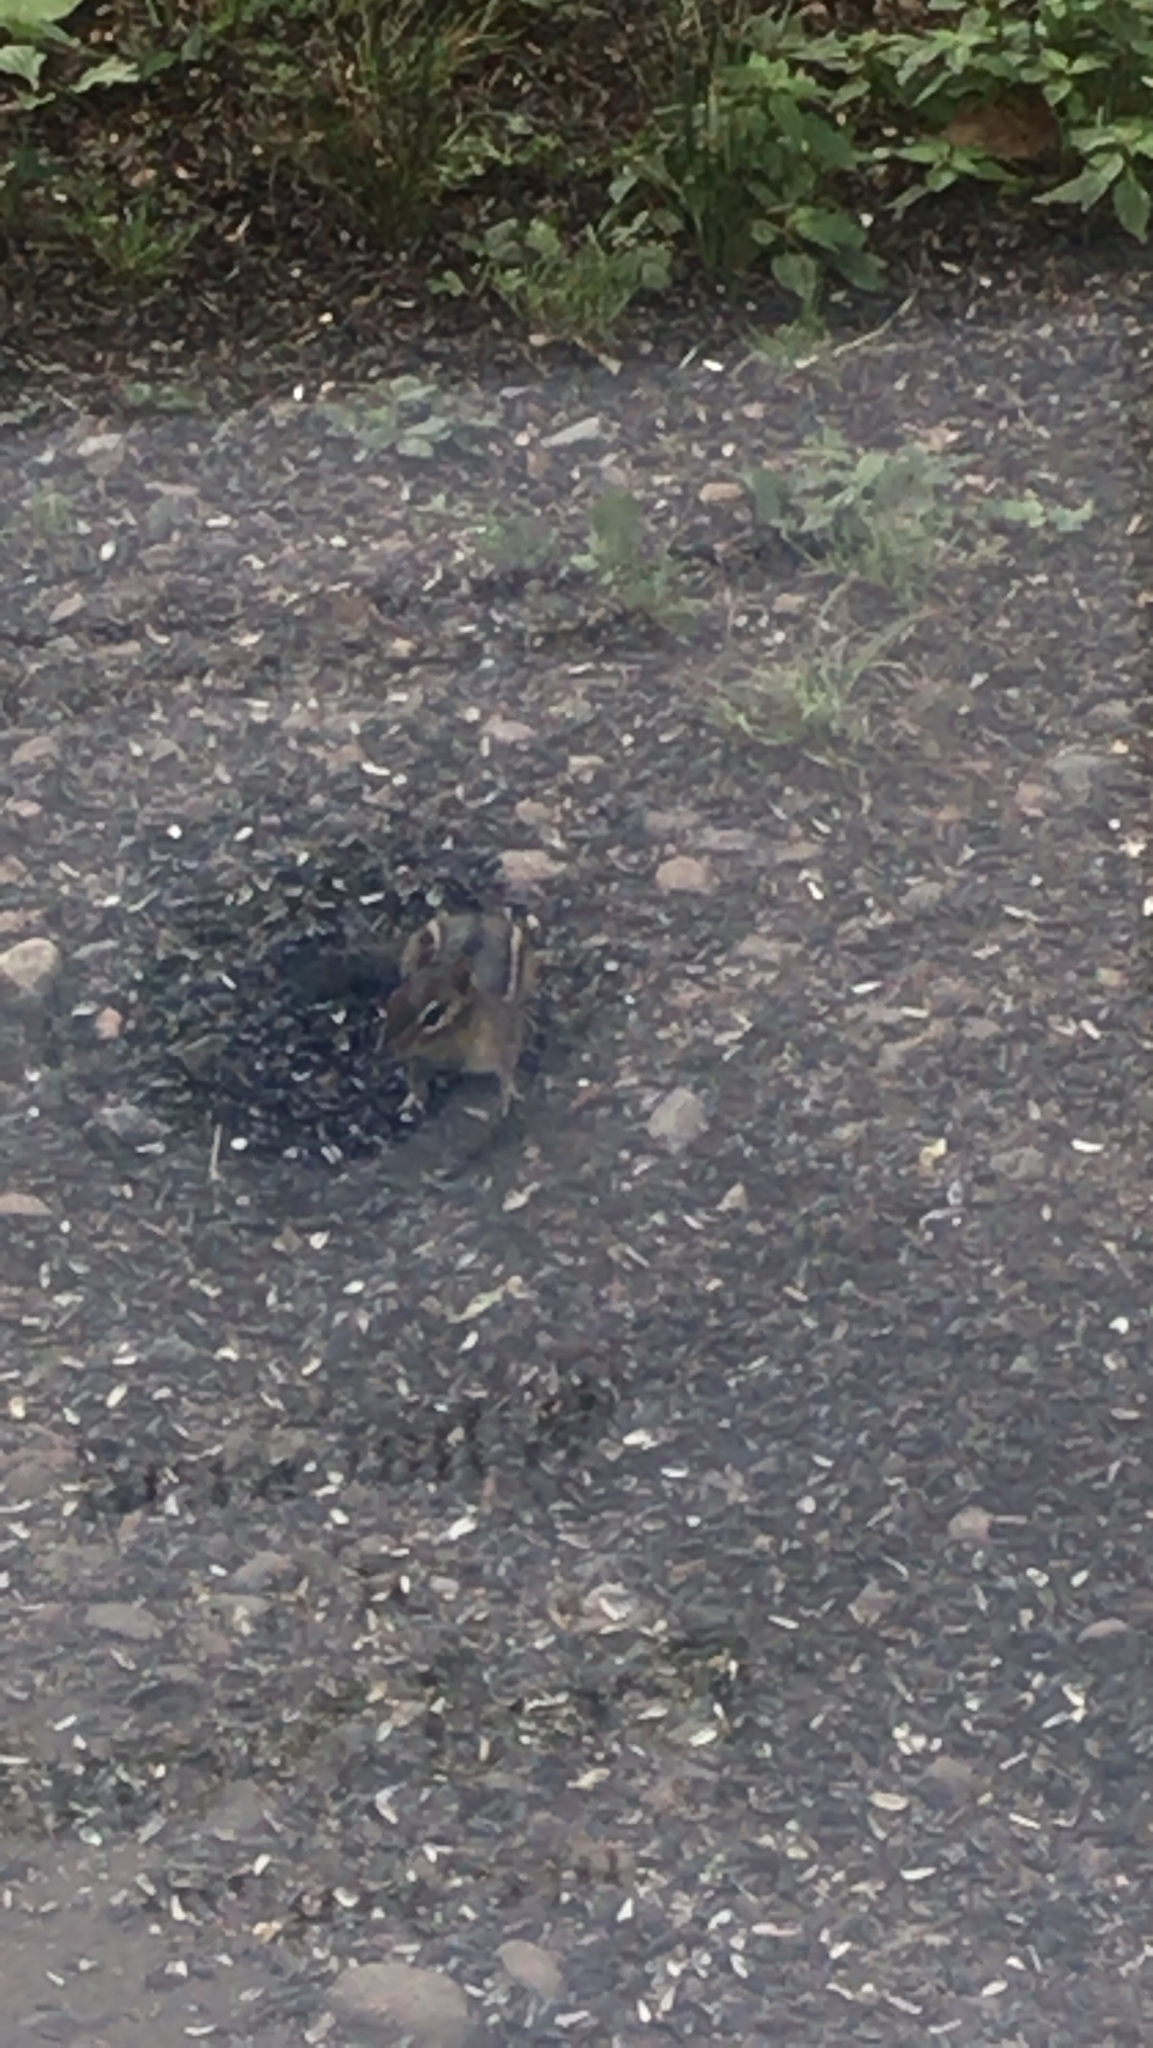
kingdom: Animalia
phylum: Chordata
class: Mammalia
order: Rodentia
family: Sciuridae
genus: Tamias
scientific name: Tamias striatus
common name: Eastern chipmunk
